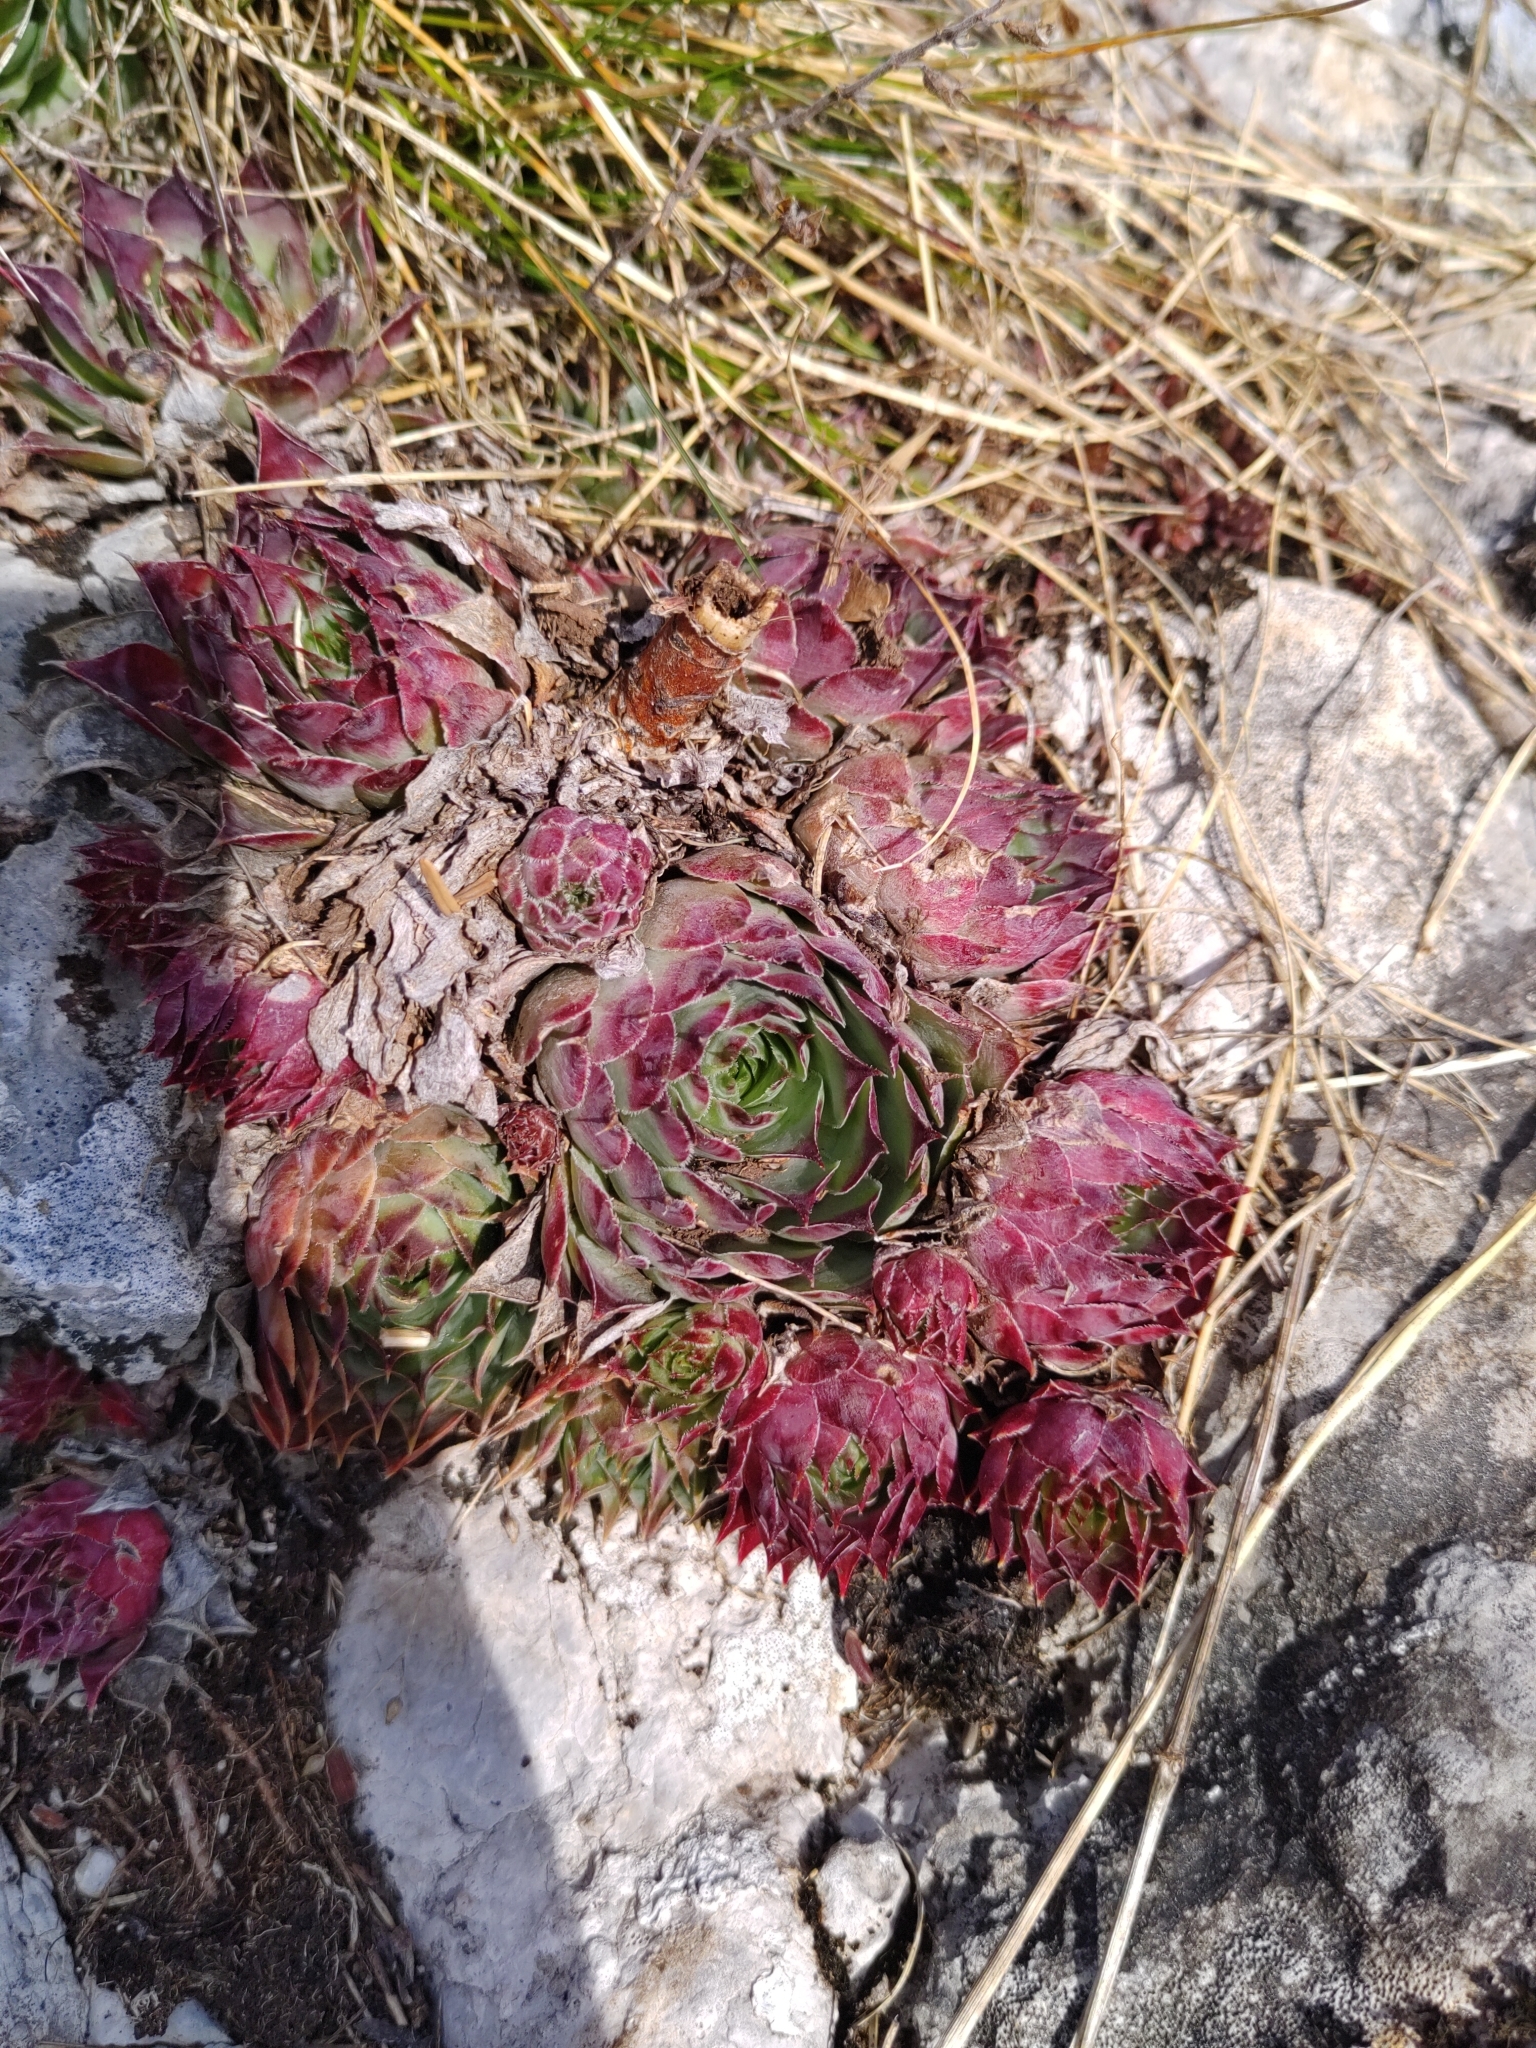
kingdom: Plantae
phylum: Tracheophyta
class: Magnoliopsida
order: Saxifragales
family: Crassulaceae
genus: Sempervivum
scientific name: Sempervivum tectorum
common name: House-leek
